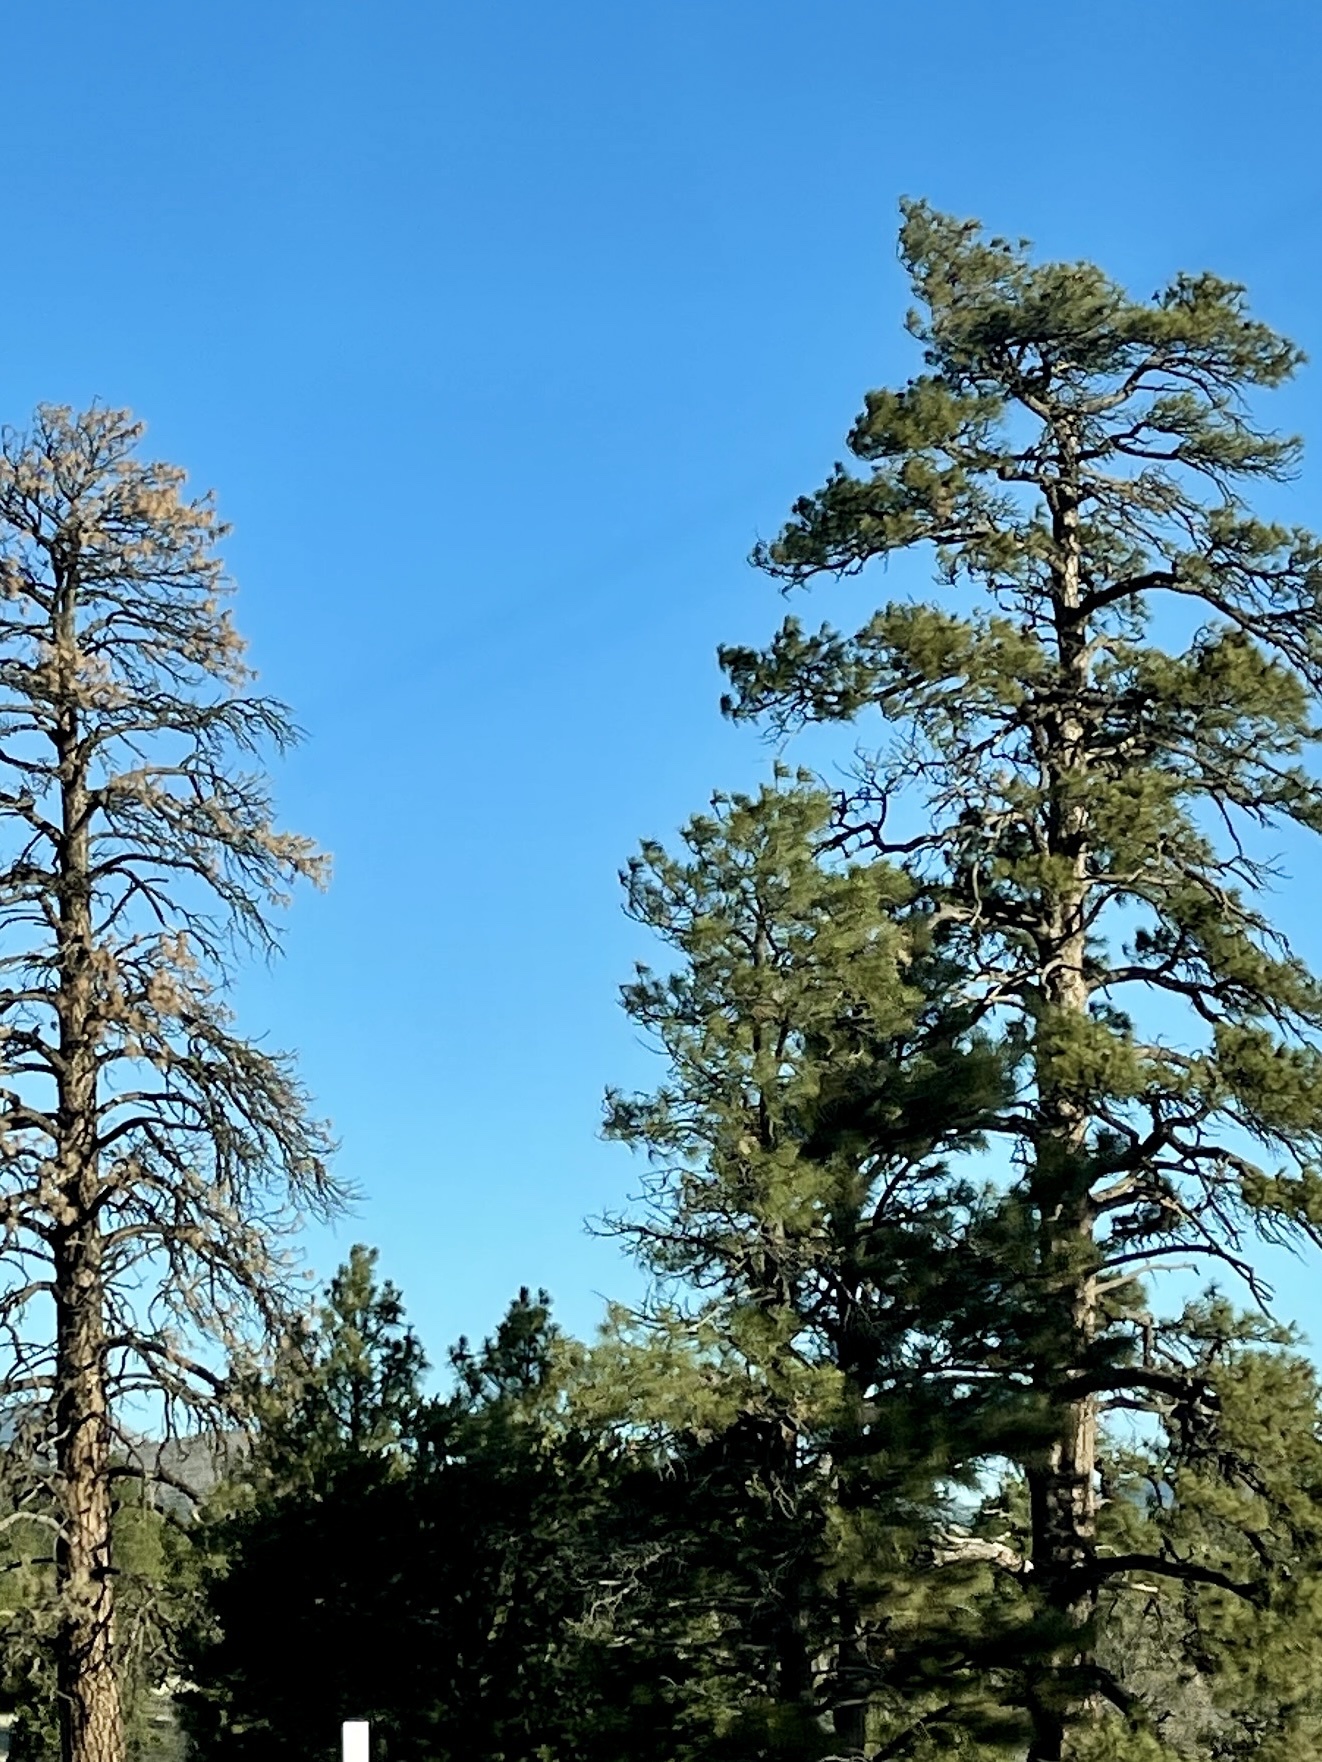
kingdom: Plantae
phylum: Tracheophyta
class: Pinopsida
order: Pinales
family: Pinaceae
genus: Pinus
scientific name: Pinus ponderosa
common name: Western yellow-pine
